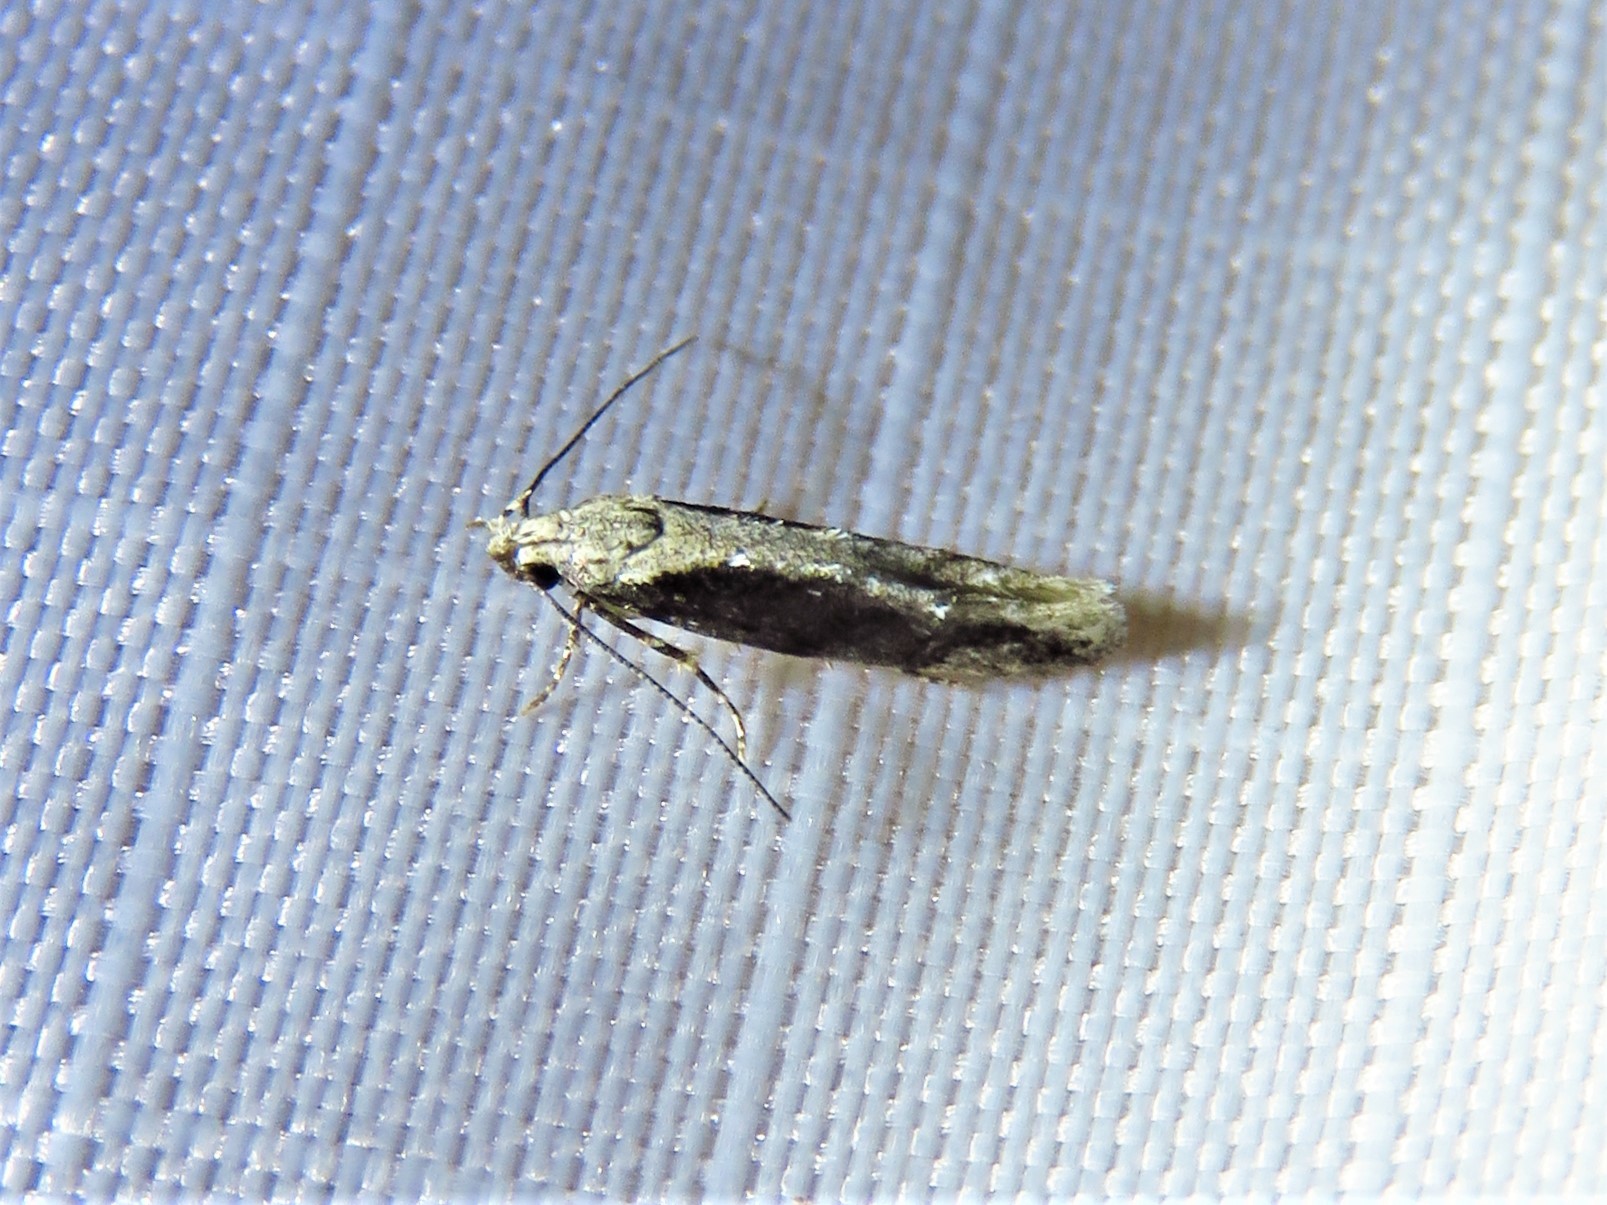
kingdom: Animalia
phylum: Arthropoda
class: Insecta
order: Lepidoptera
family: Gelechiidae
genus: Coleotechnites
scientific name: Coleotechnites florae
